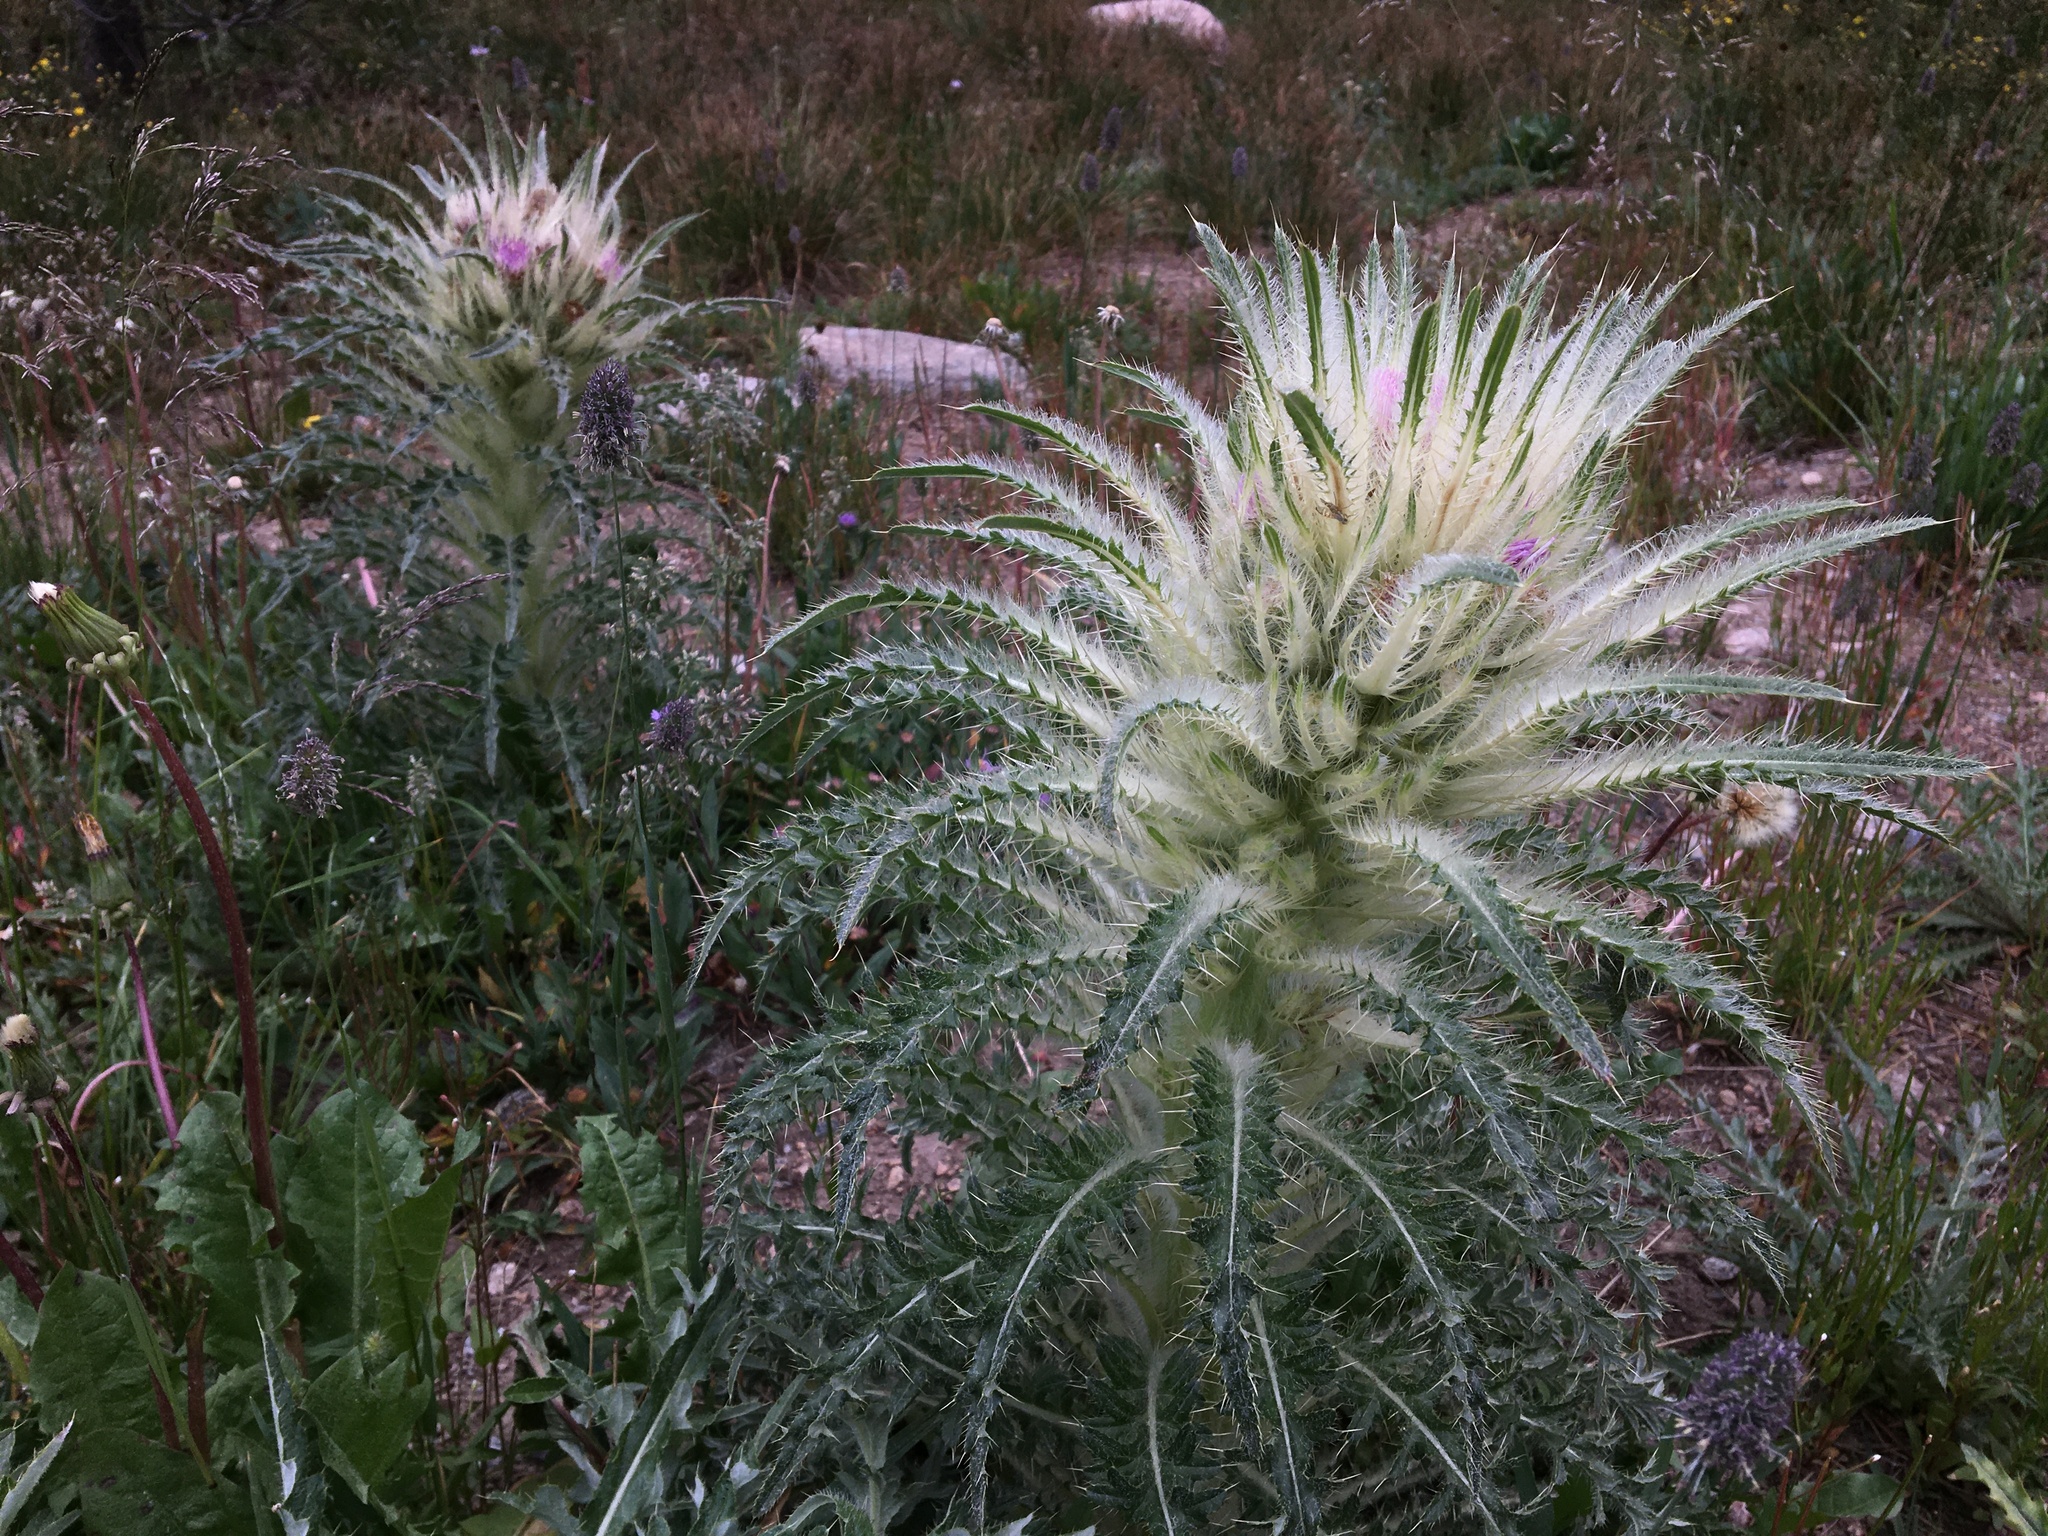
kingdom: Plantae
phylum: Tracheophyta
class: Magnoliopsida
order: Asterales
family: Asteraceae
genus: Cirsium
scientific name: Cirsium scariosum
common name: Meadow thistle
